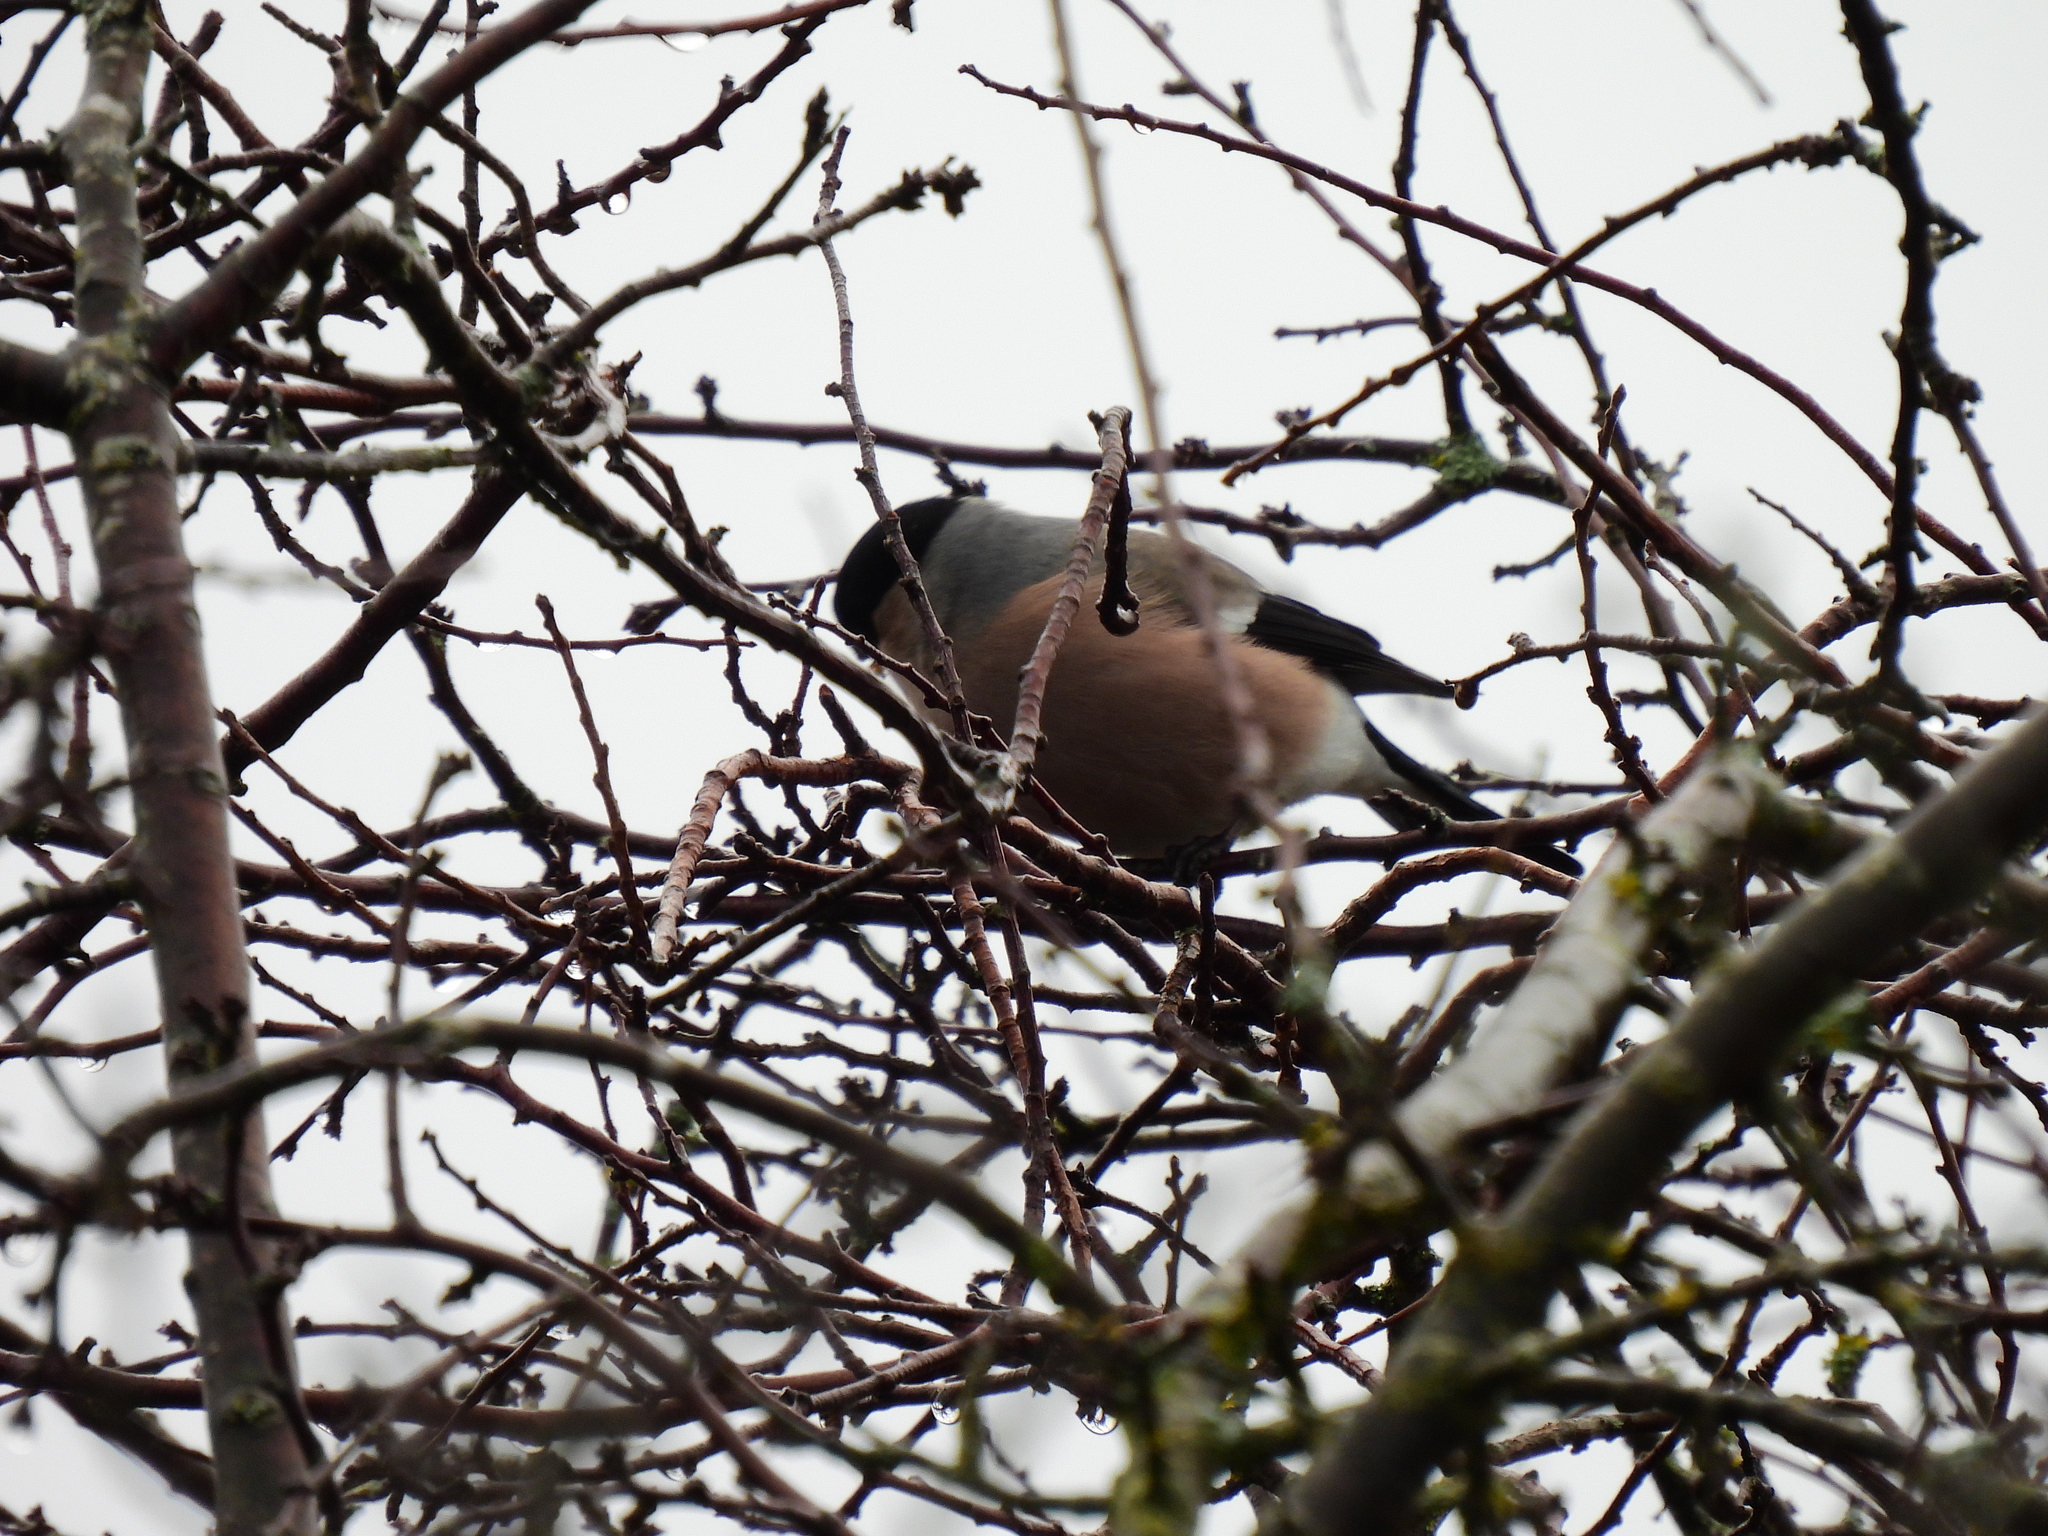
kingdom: Animalia
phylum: Chordata
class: Aves
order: Passeriformes
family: Fringillidae
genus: Pyrrhula
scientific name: Pyrrhula pyrrhula
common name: Eurasian bullfinch
